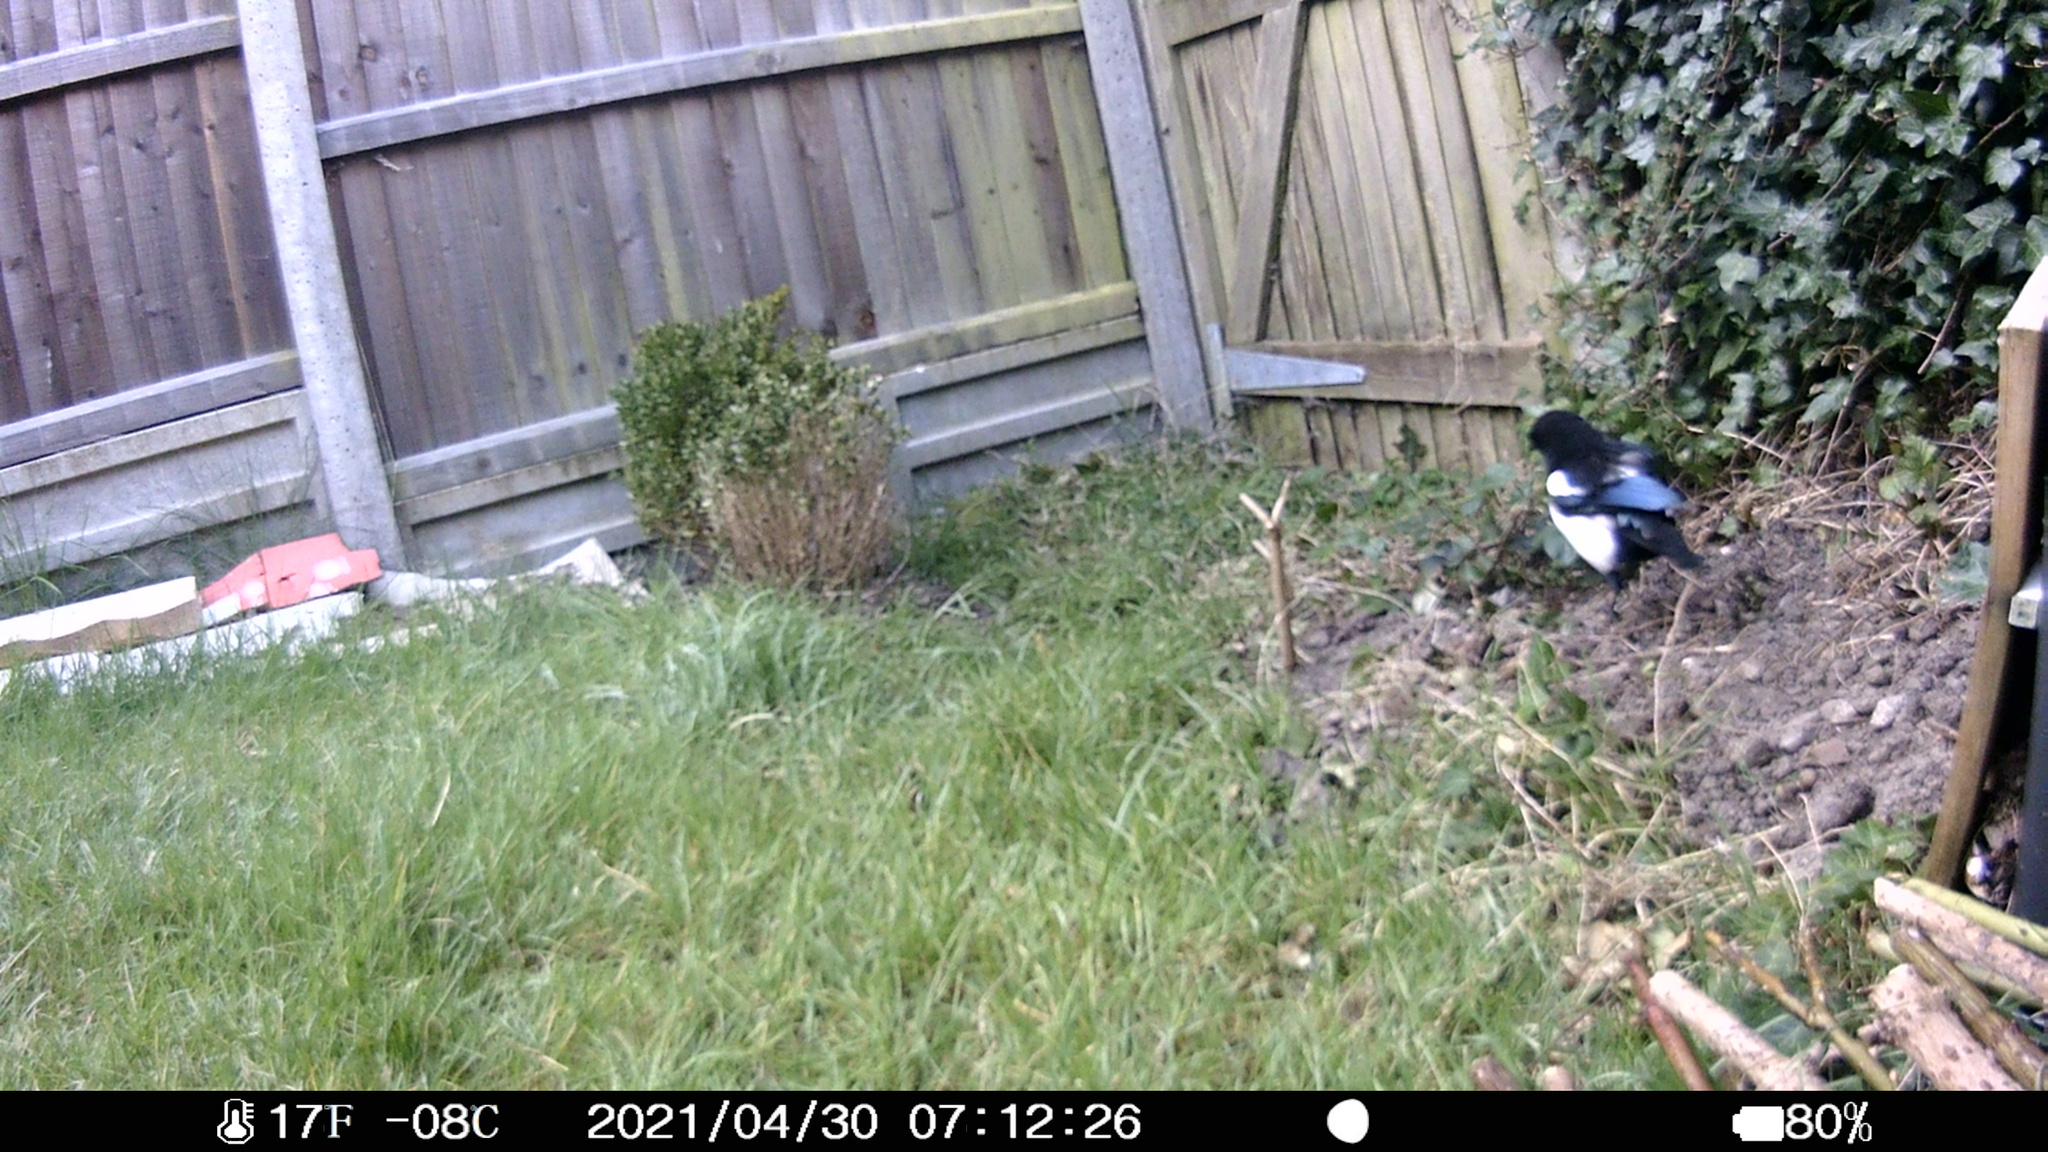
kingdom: Animalia
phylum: Chordata
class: Aves
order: Passeriformes
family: Corvidae
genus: Pica
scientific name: Pica pica
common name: Eurasian magpie
